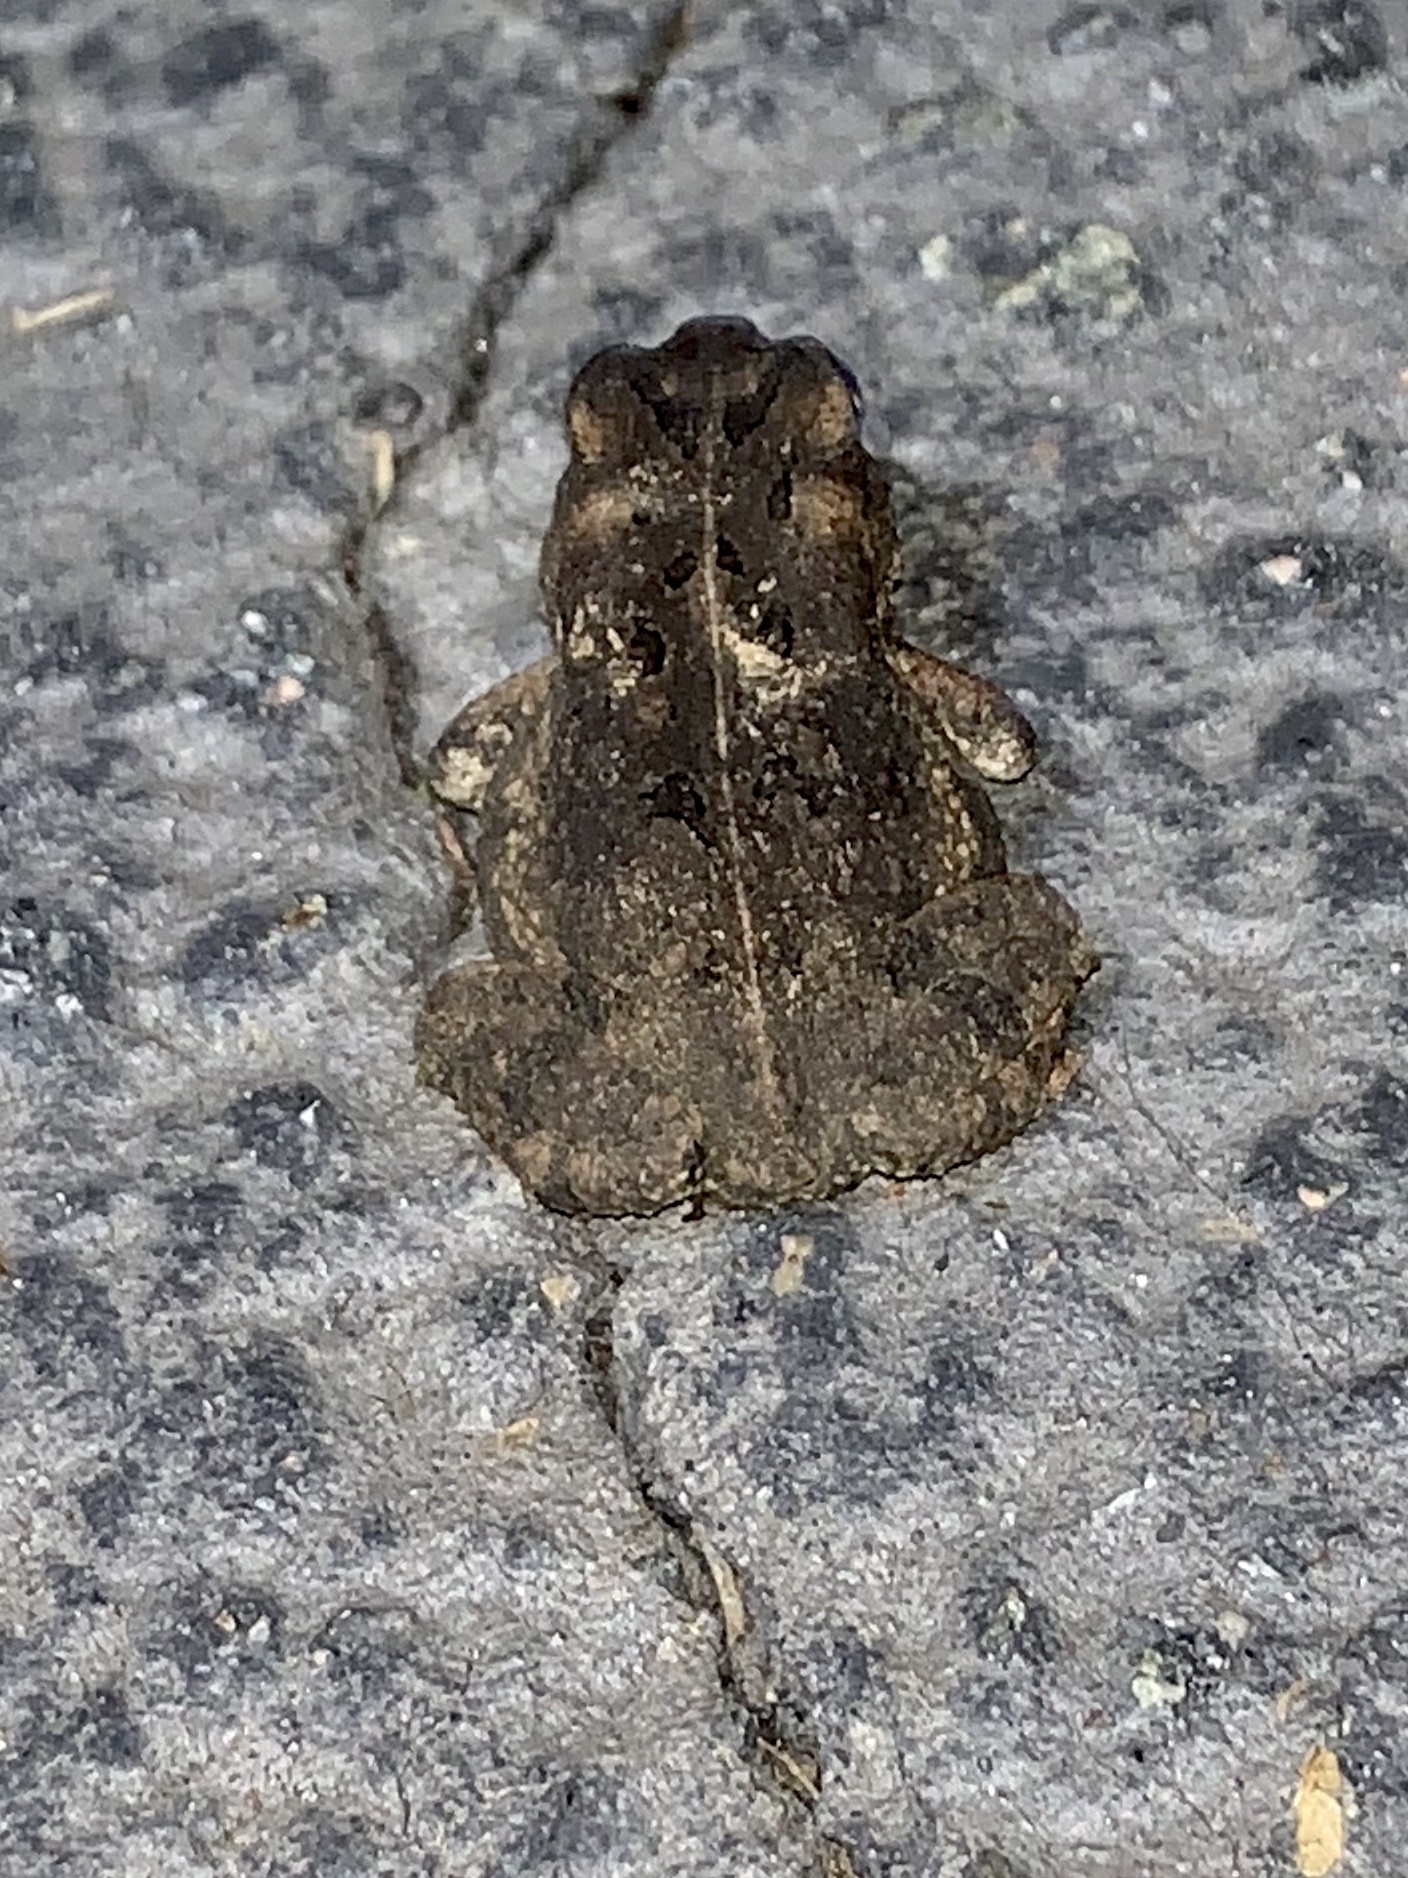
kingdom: Animalia
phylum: Chordata
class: Amphibia
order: Anura
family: Bufonidae
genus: Anaxyrus
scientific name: Anaxyrus fowleri
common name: Fowler's toad
